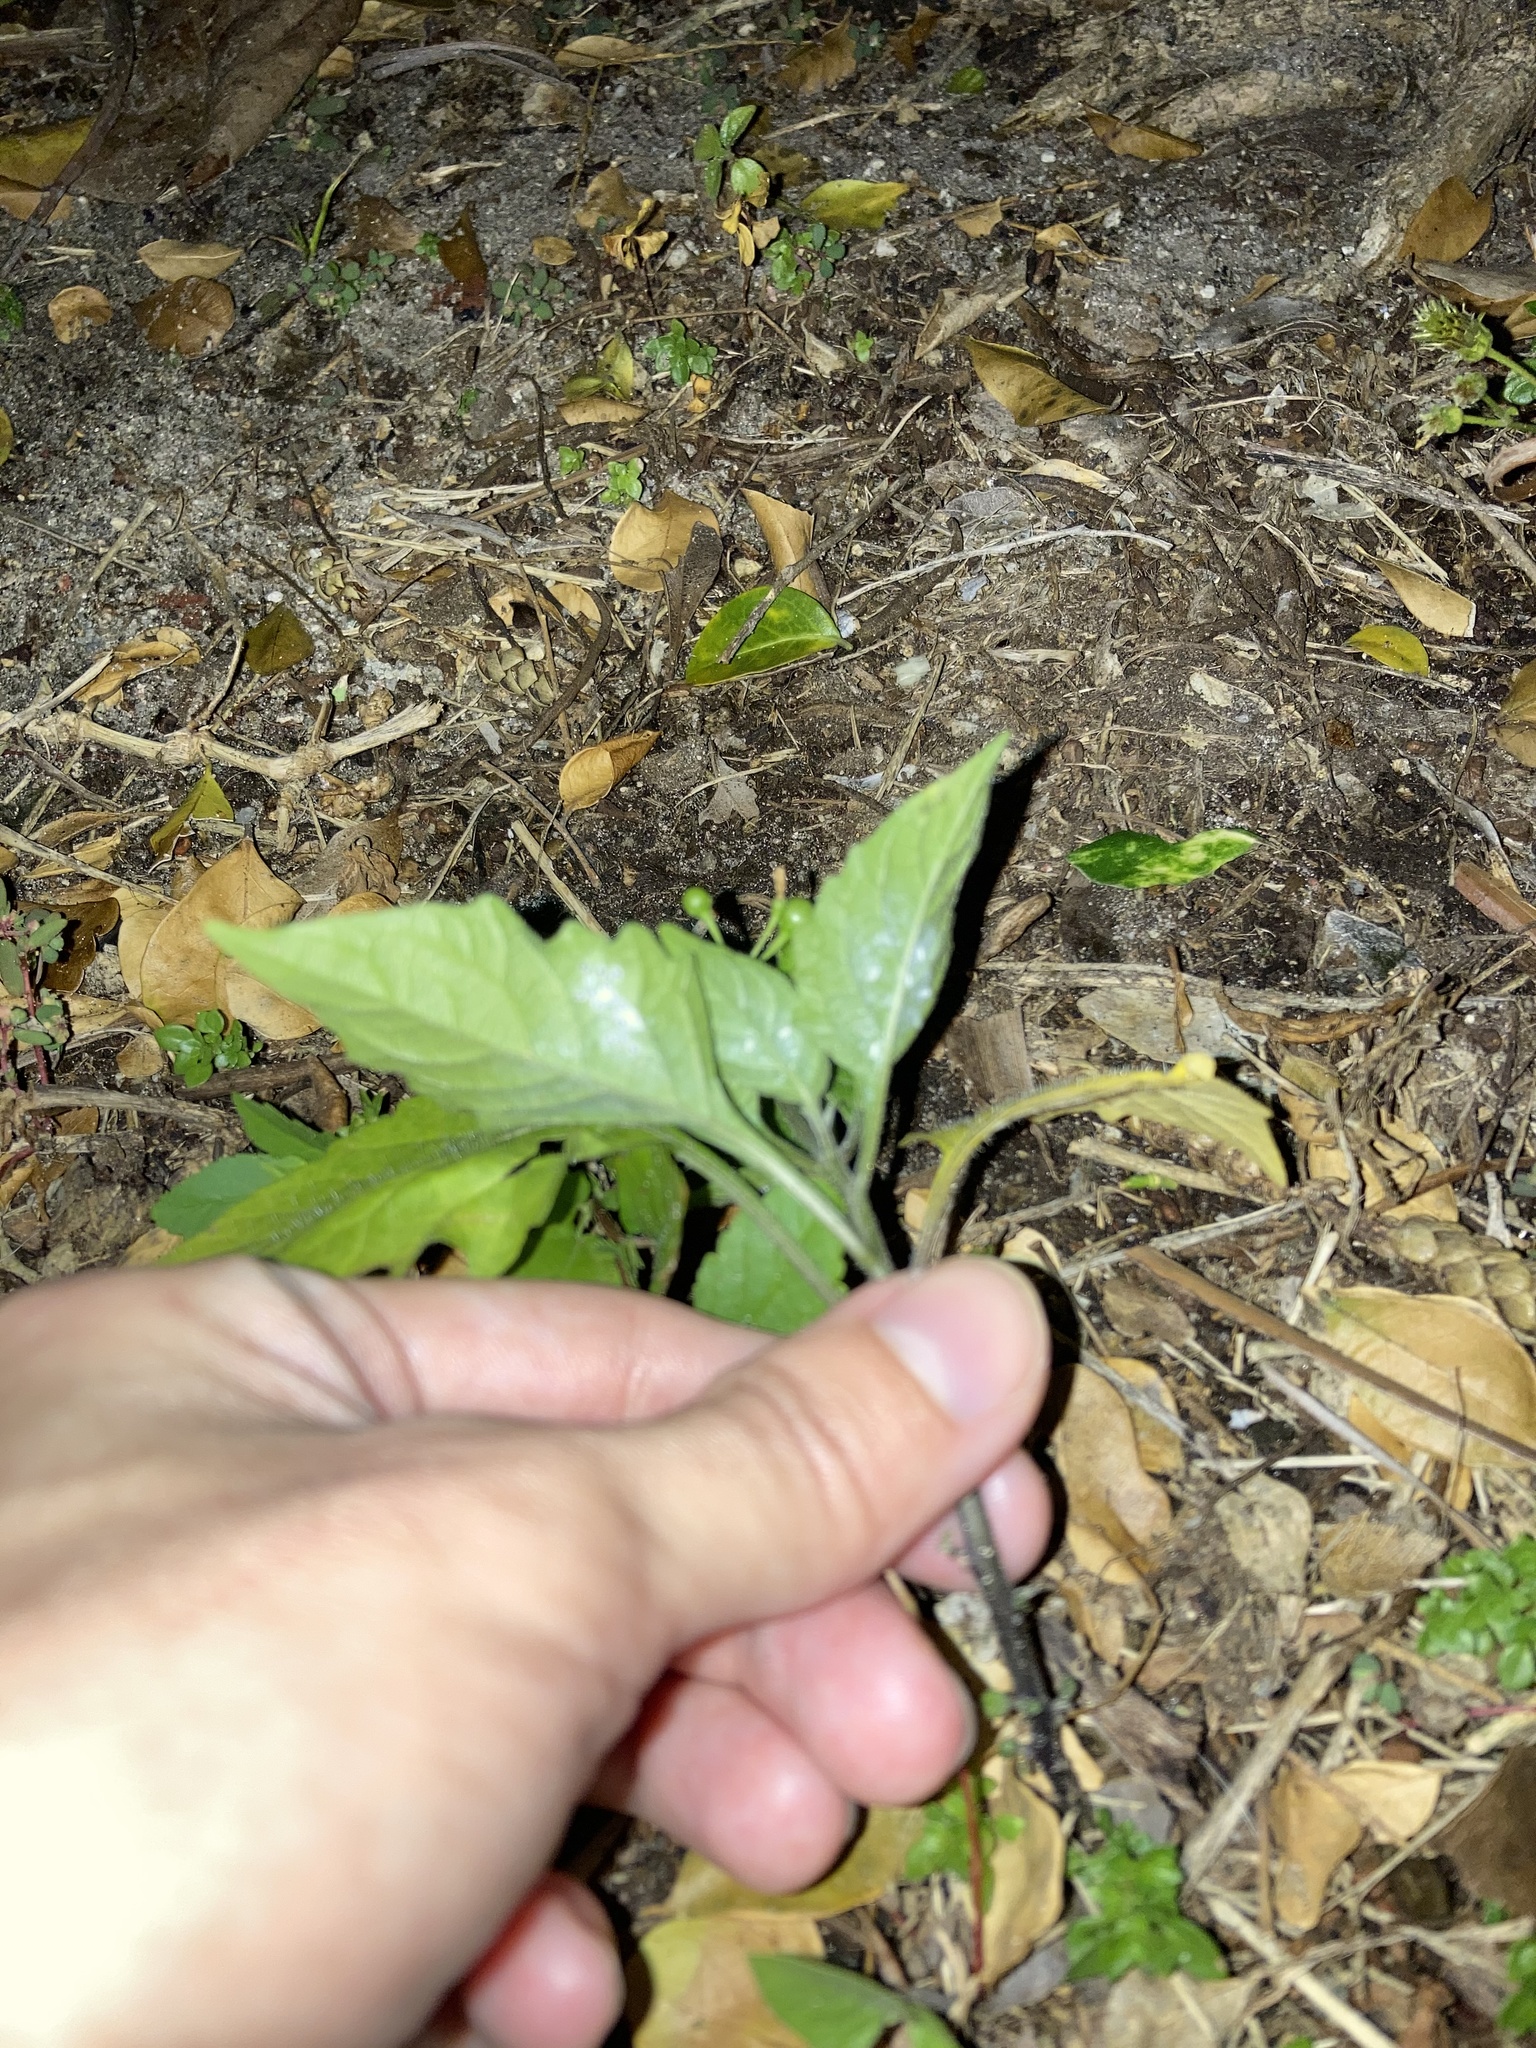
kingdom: Plantae
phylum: Tracheophyta
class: Magnoliopsida
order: Solanales
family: Solanaceae
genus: Solanum
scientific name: Solanum americanum
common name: American black nightshade
